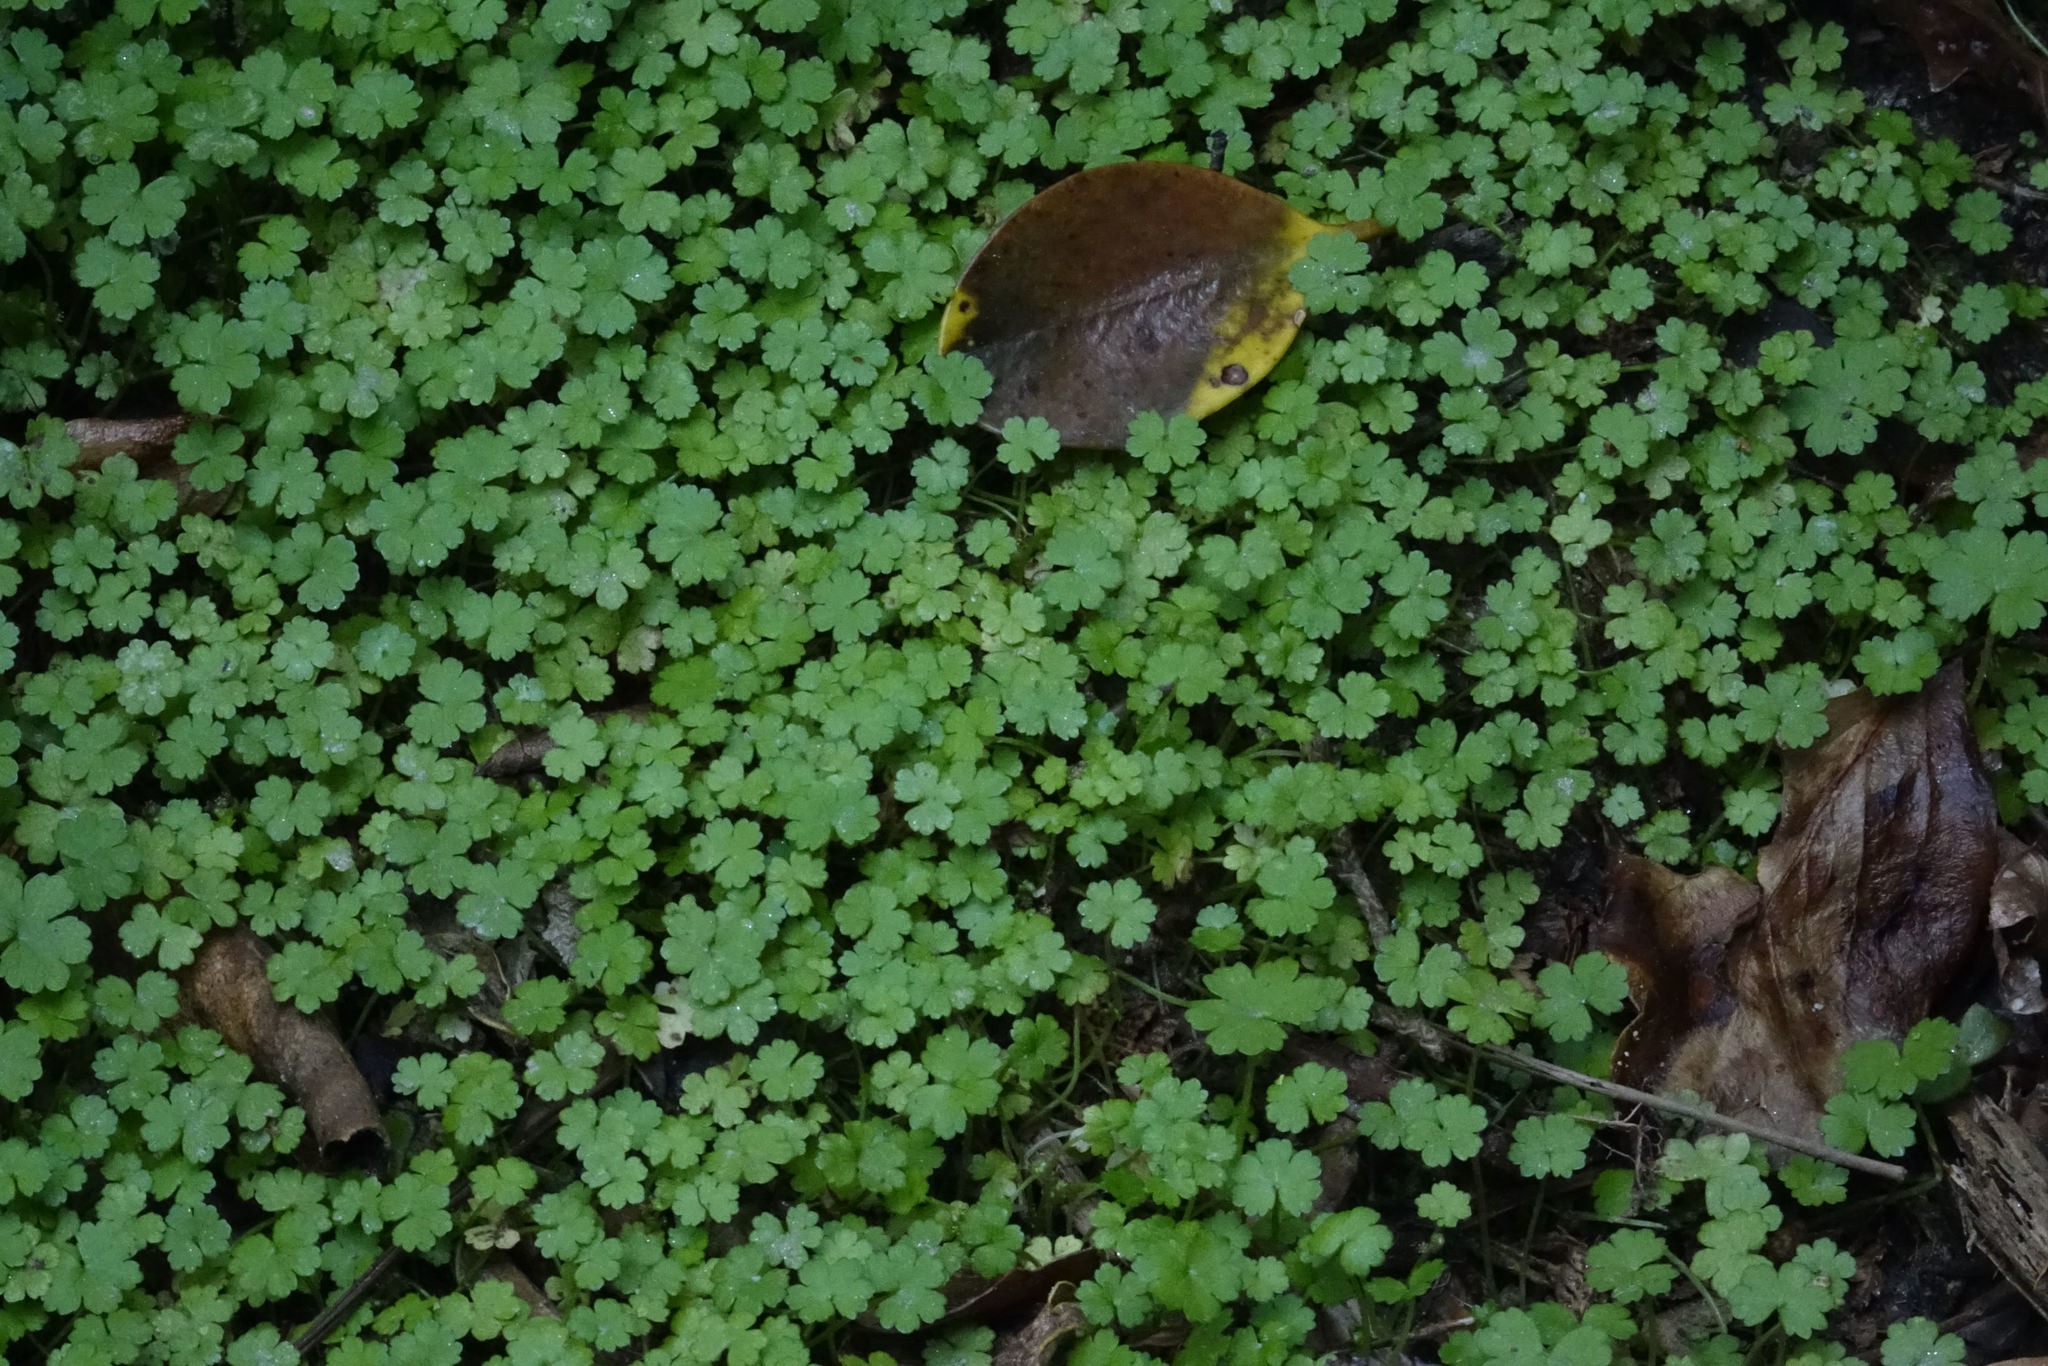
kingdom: Plantae
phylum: Tracheophyta
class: Magnoliopsida
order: Apiales
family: Araliaceae
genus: Hydrocotyle
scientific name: Hydrocotyle heteromeria
